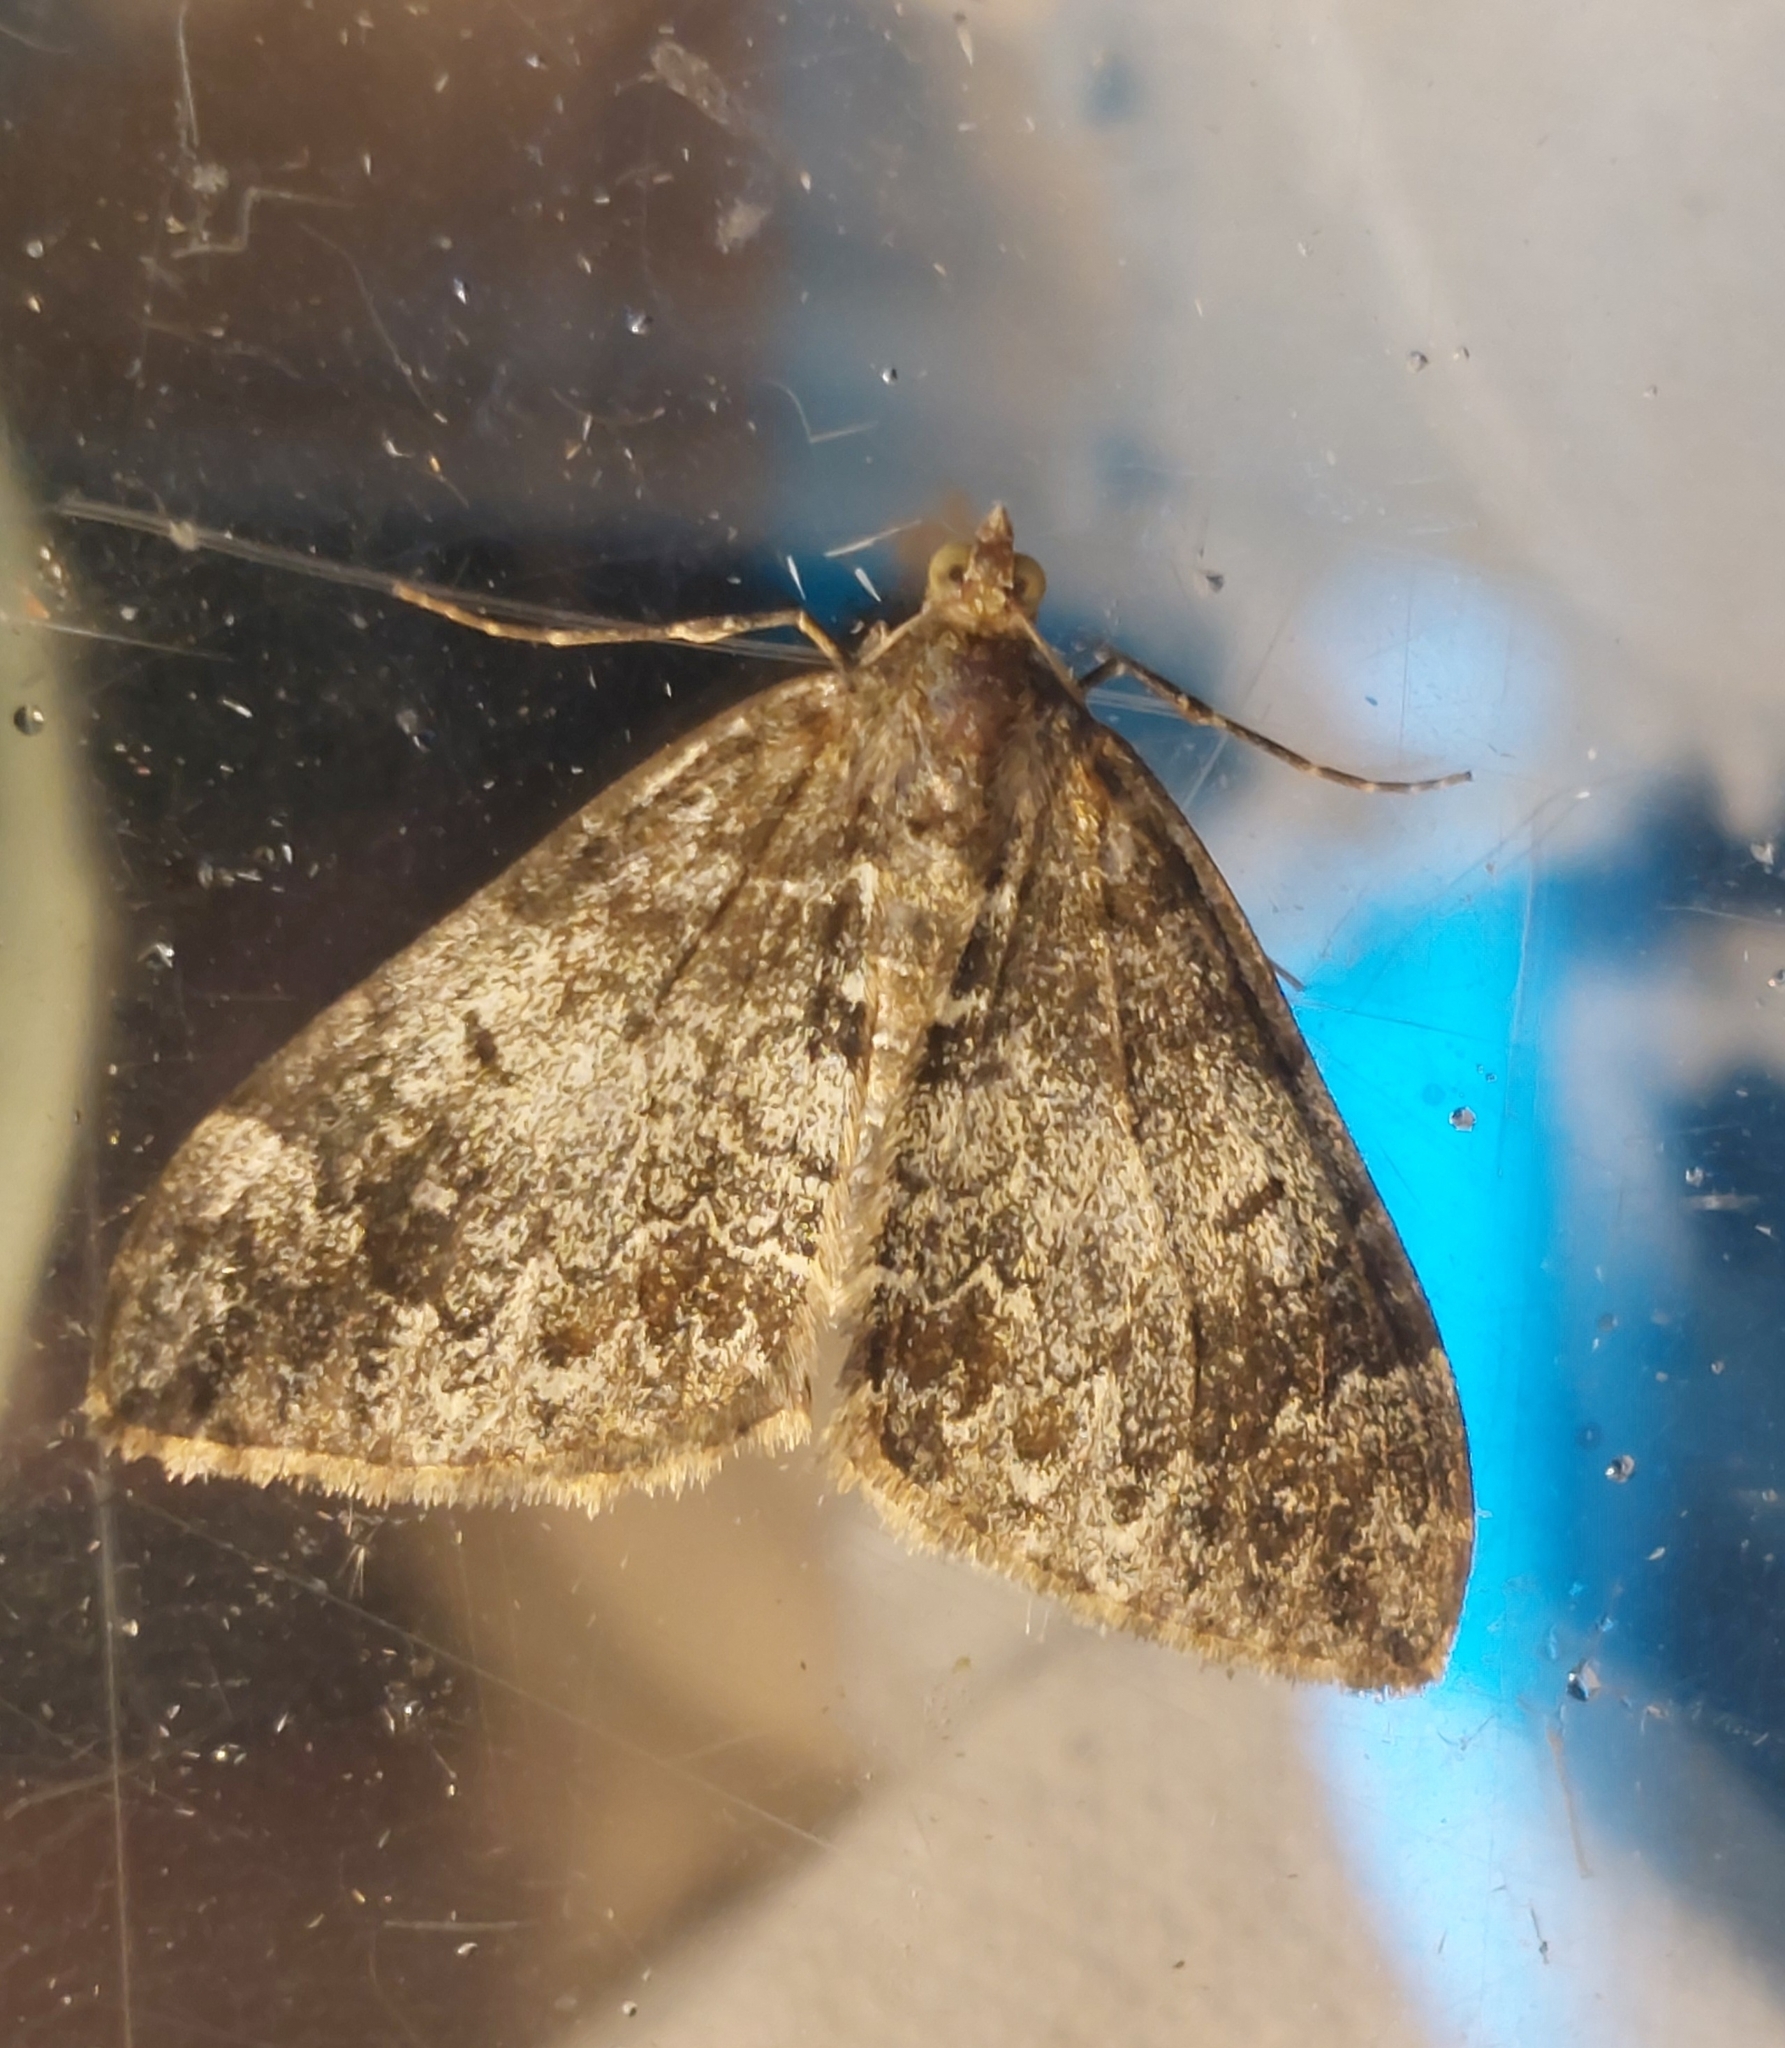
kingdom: Animalia
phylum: Arthropoda
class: Insecta
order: Lepidoptera
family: Geometridae
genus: Dysstroma
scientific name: Dysstroma truncata
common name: Common marbled carpet
